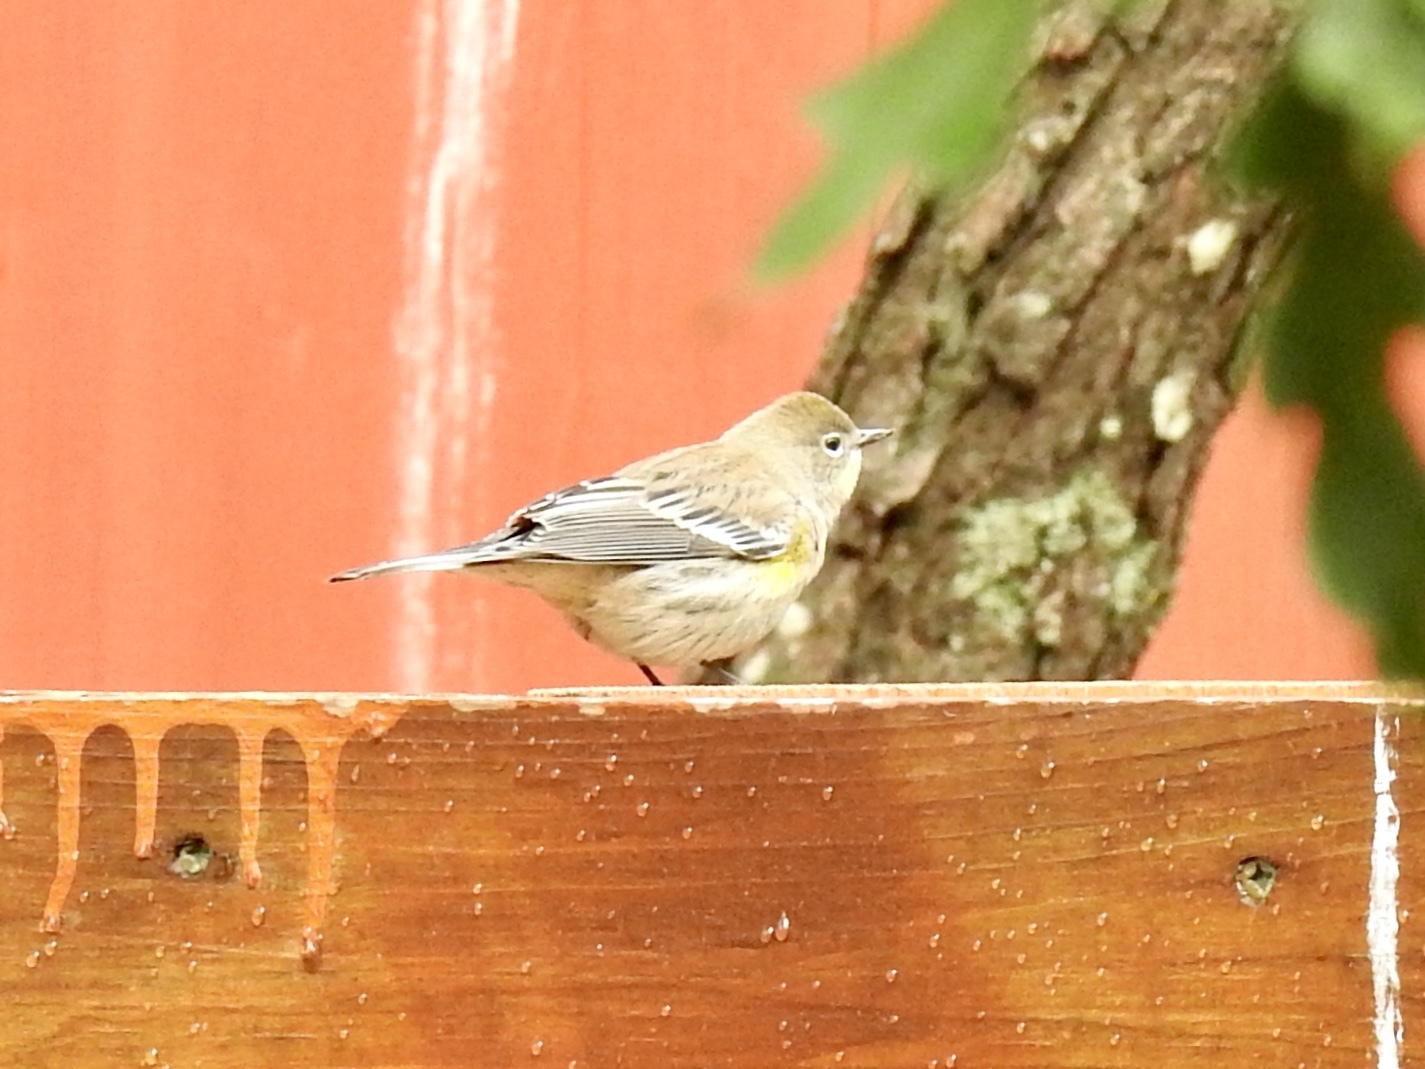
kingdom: Animalia
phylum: Chordata
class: Aves
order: Passeriformes
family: Parulidae
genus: Setophaga
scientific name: Setophaga coronata
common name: Myrtle warbler
